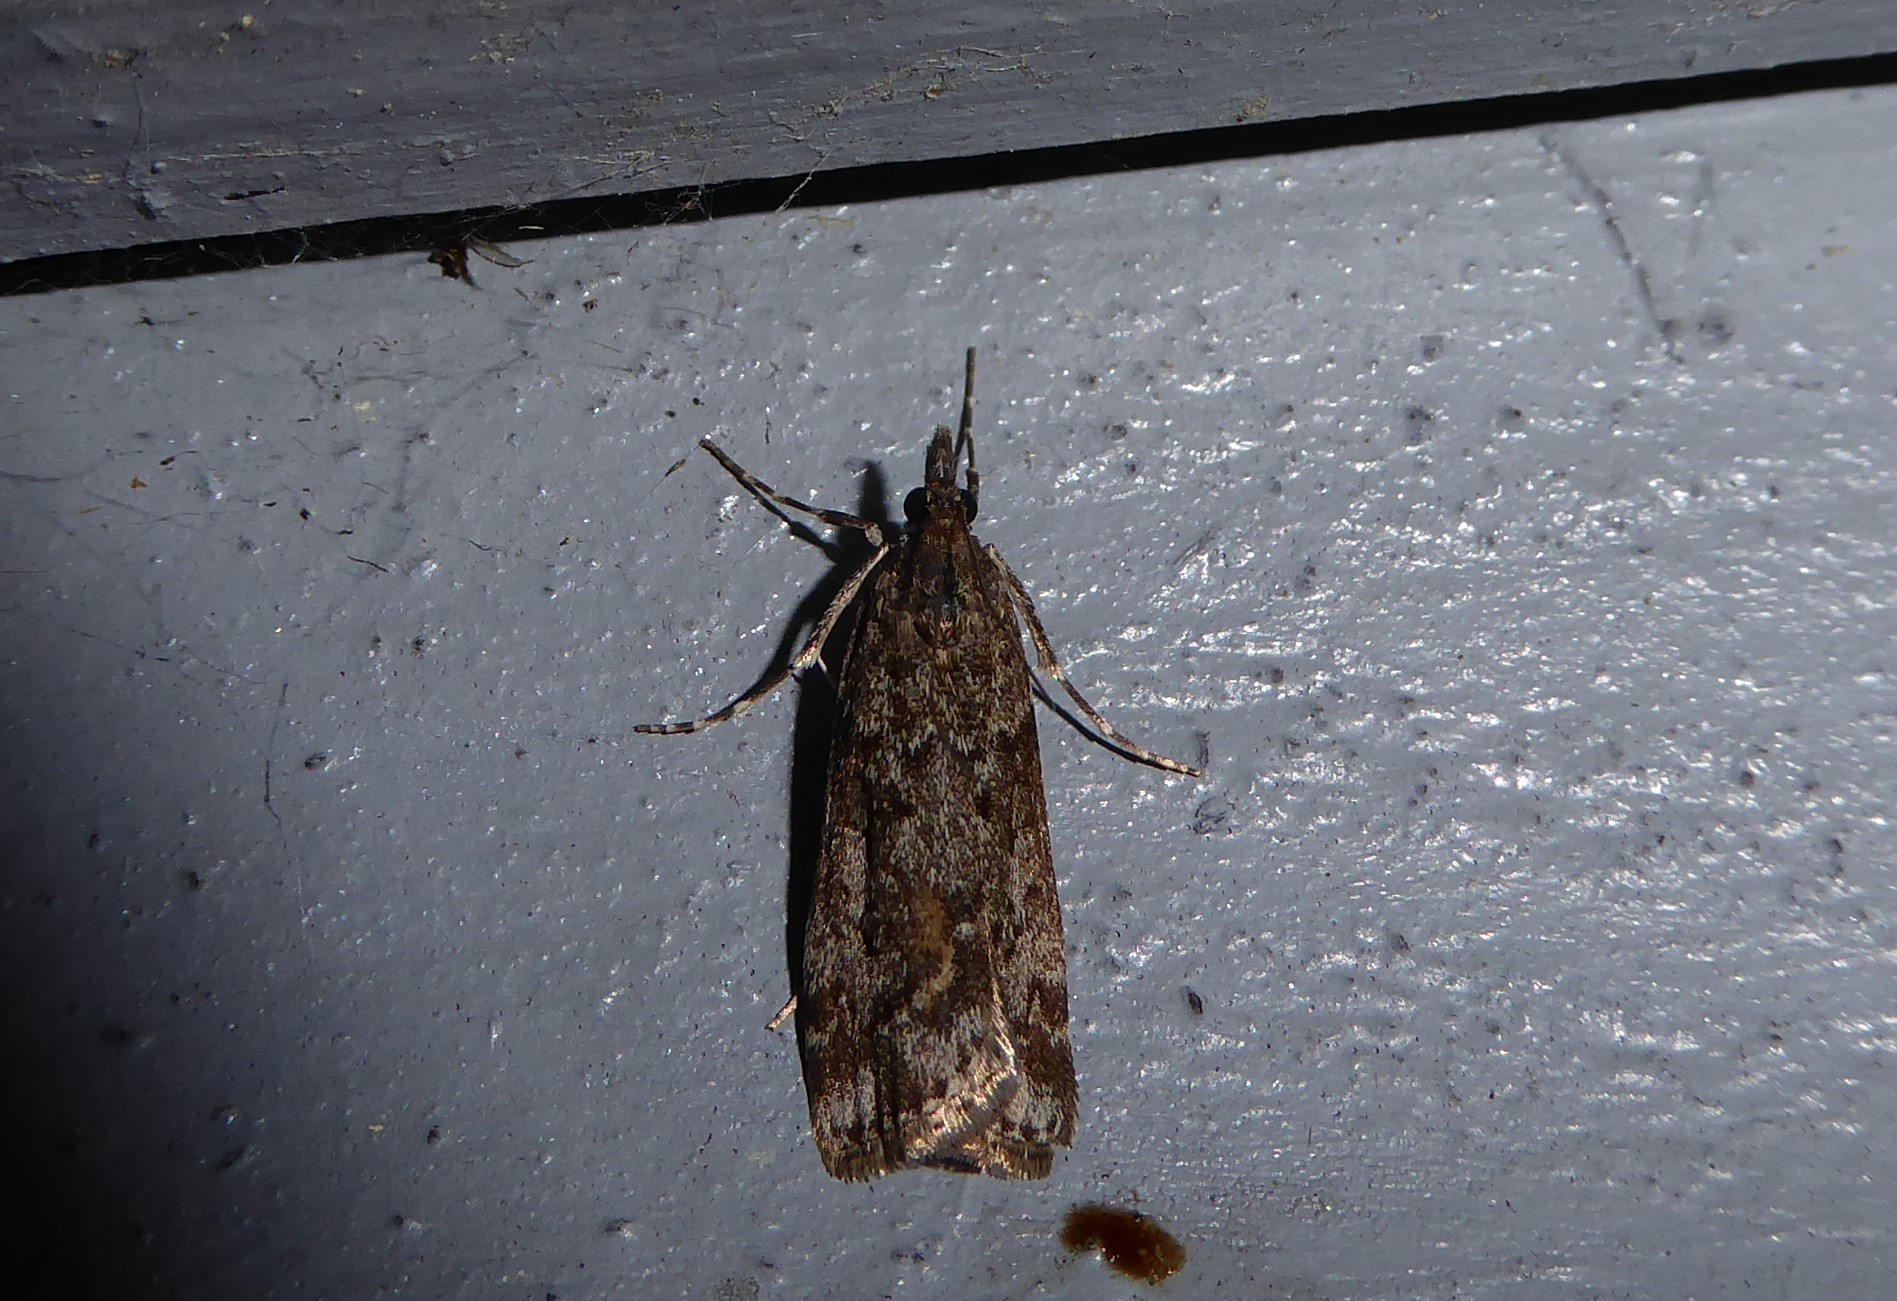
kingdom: Animalia
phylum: Arthropoda
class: Insecta
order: Lepidoptera
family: Crambidae
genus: Eudonia
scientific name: Eudonia submarginalis
